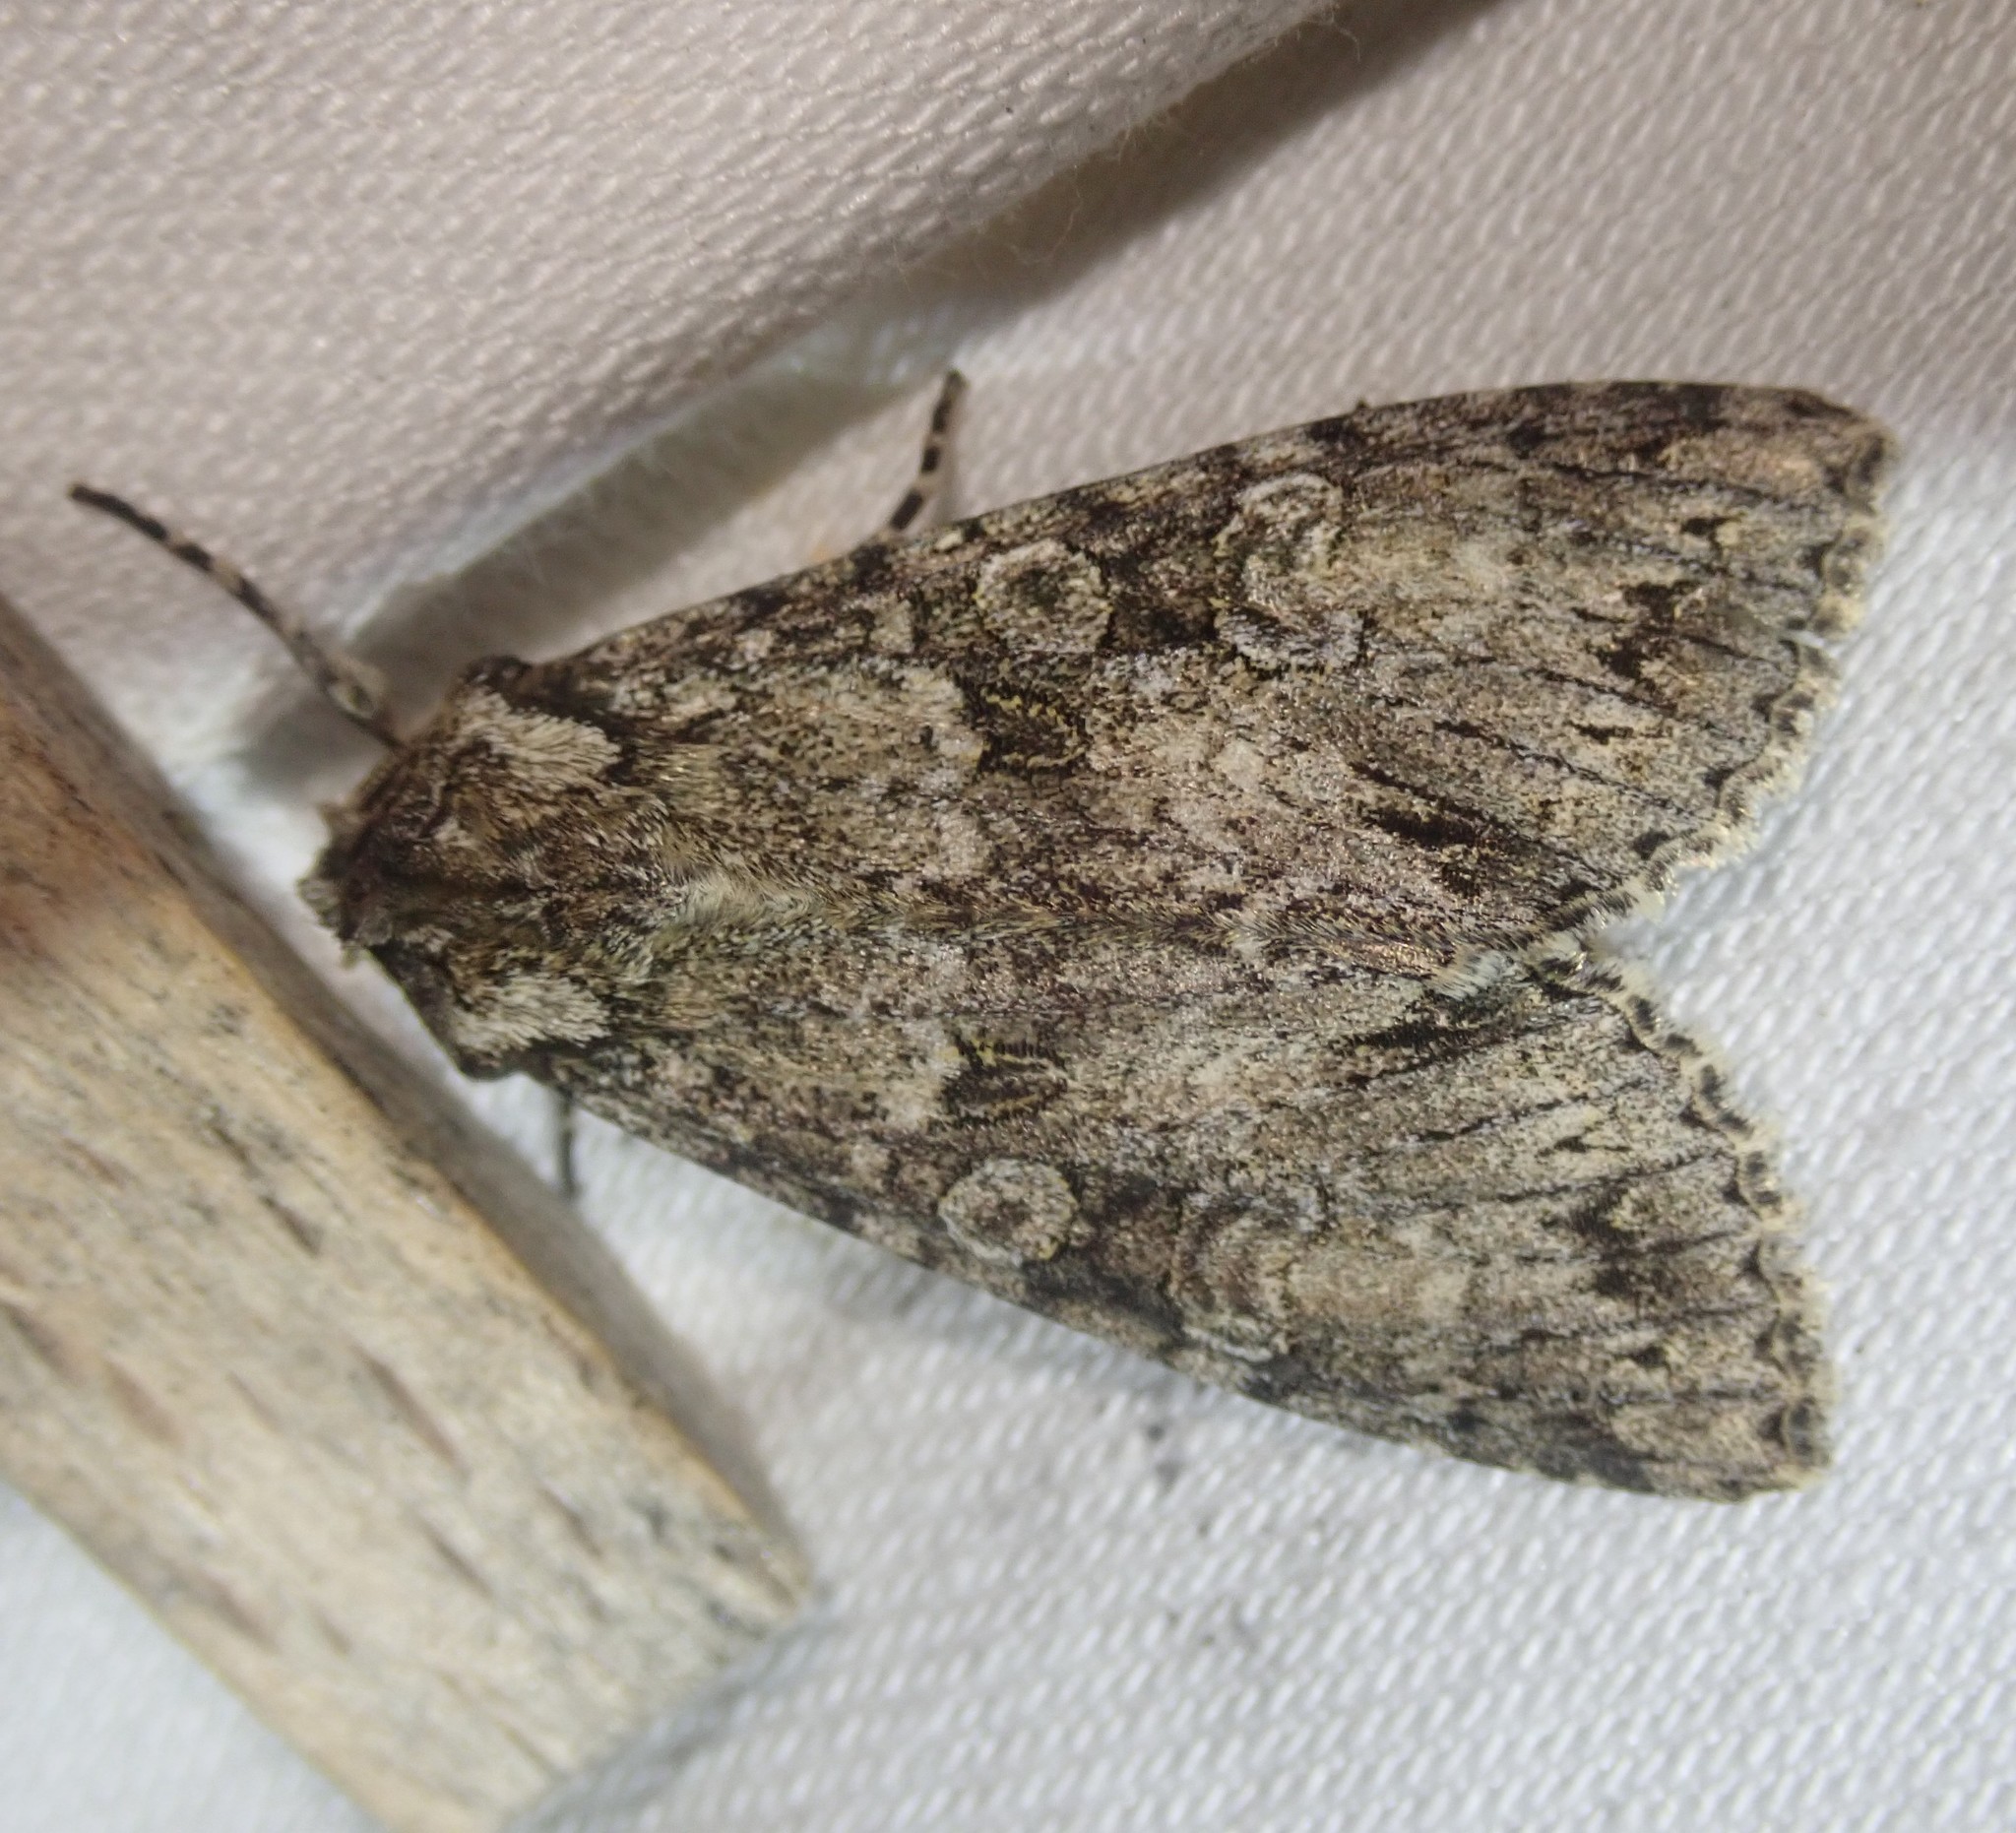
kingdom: Animalia
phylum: Arthropoda
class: Insecta
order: Lepidoptera
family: Noctuidae
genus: Polia
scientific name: Polia nebulosa
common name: Grey arches
